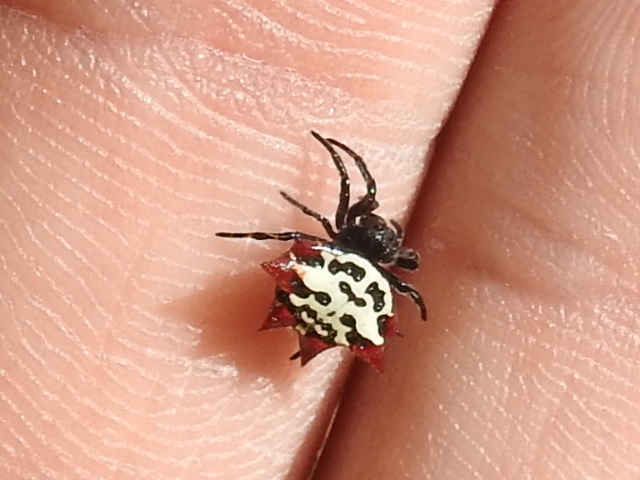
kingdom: Animalia
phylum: Arthropoda
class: Arachnida
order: Araneae
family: Araneidae
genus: Gasteracantha
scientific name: Gasteracantha cancriformis
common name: Orb weavers
